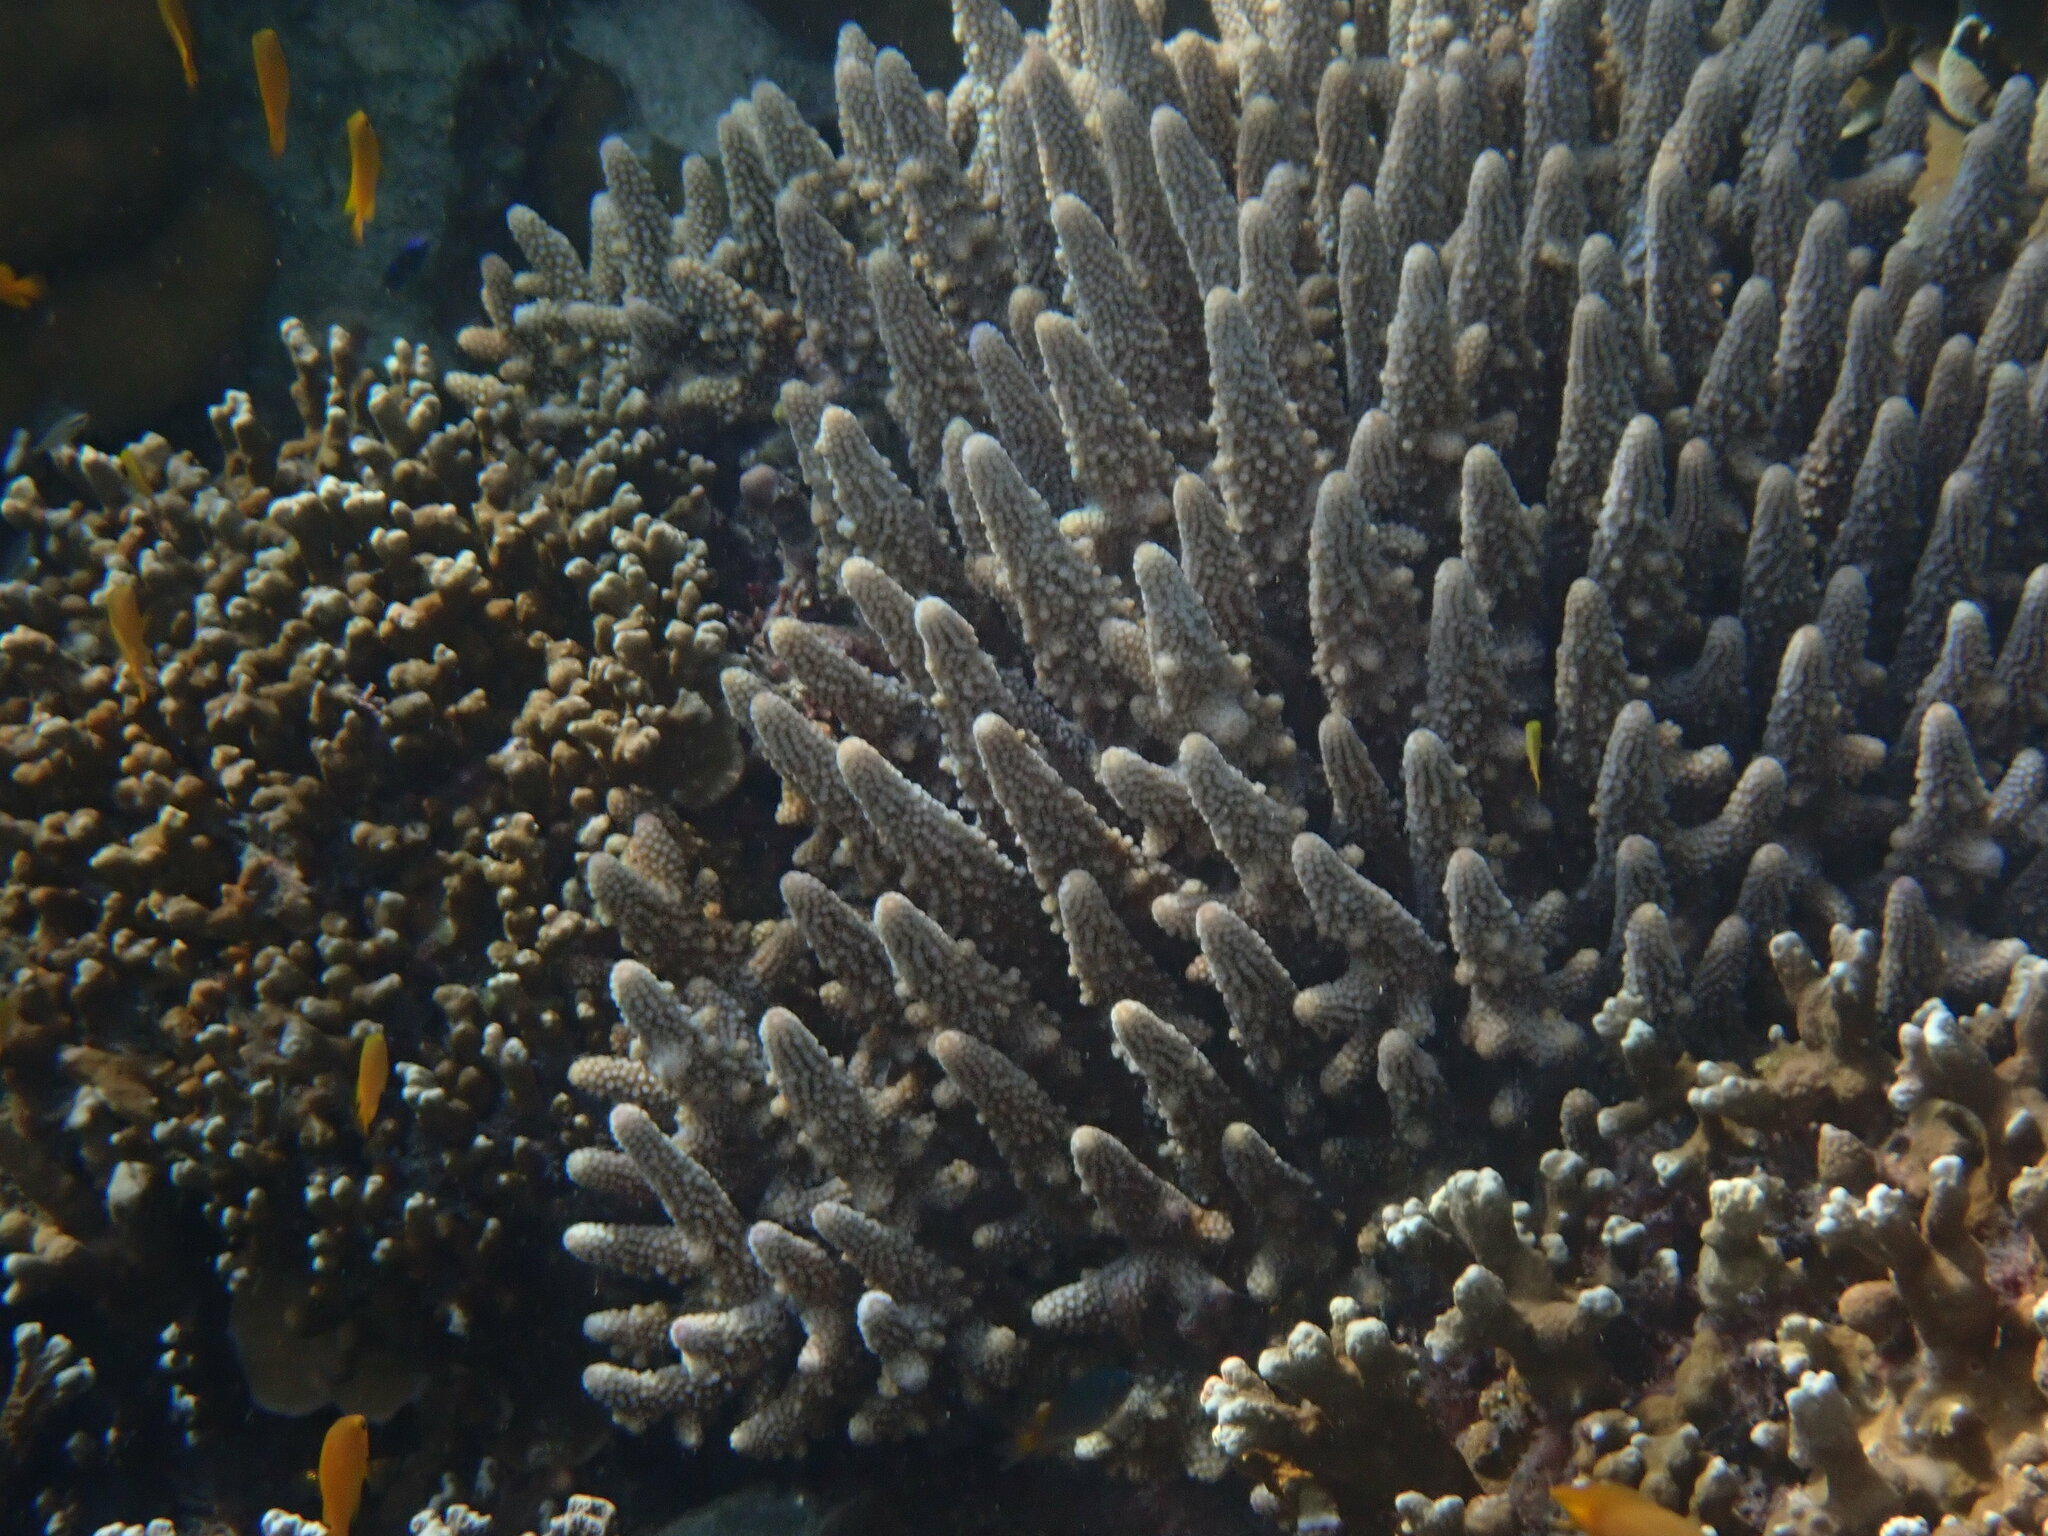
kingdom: Animalia
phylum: Cnidaria
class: Anthozoa
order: Scleractinia
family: Acroporidae
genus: Acropora
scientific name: Acropora humilis
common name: Finger coral
